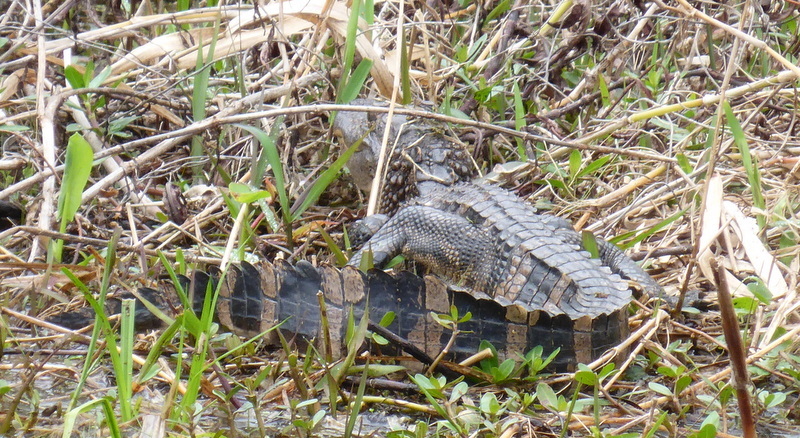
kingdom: Animalia
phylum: Chordata
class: Crocodylia
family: Alligatoridae
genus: Alligator
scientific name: Alligator mississippiensis
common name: American alligator
